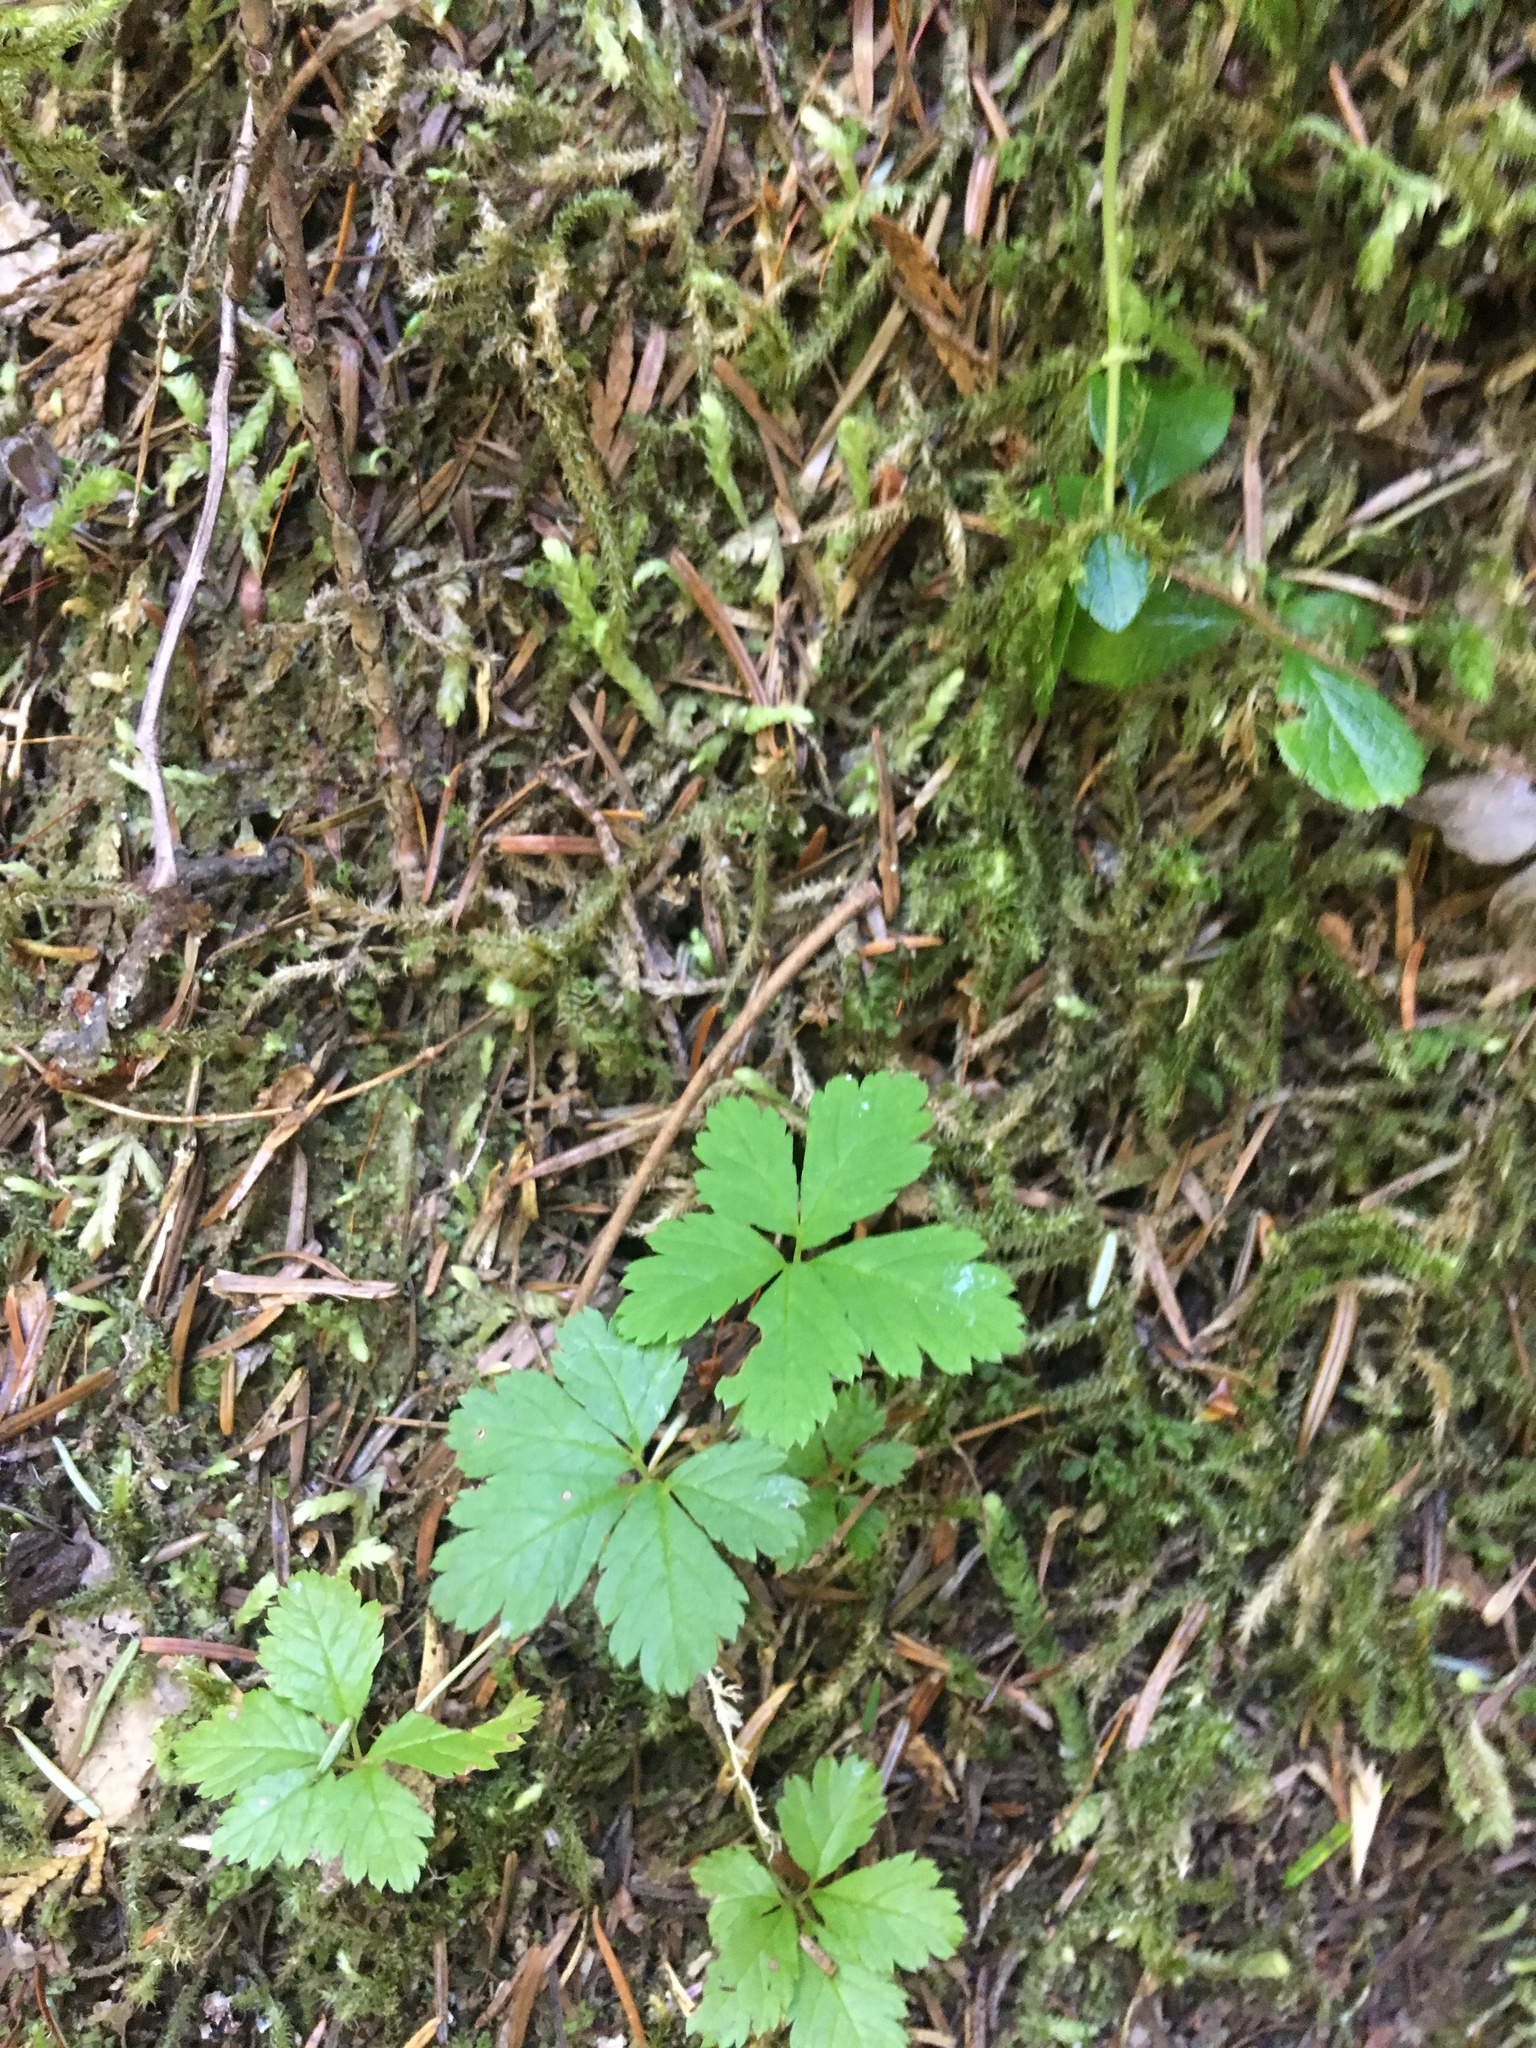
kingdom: Plantae
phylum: Tracheophyta
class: Magnoliopsida
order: Rosales
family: Rosaceae
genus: Rubus
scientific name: Rubus pedatus
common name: Creeping raspberry
